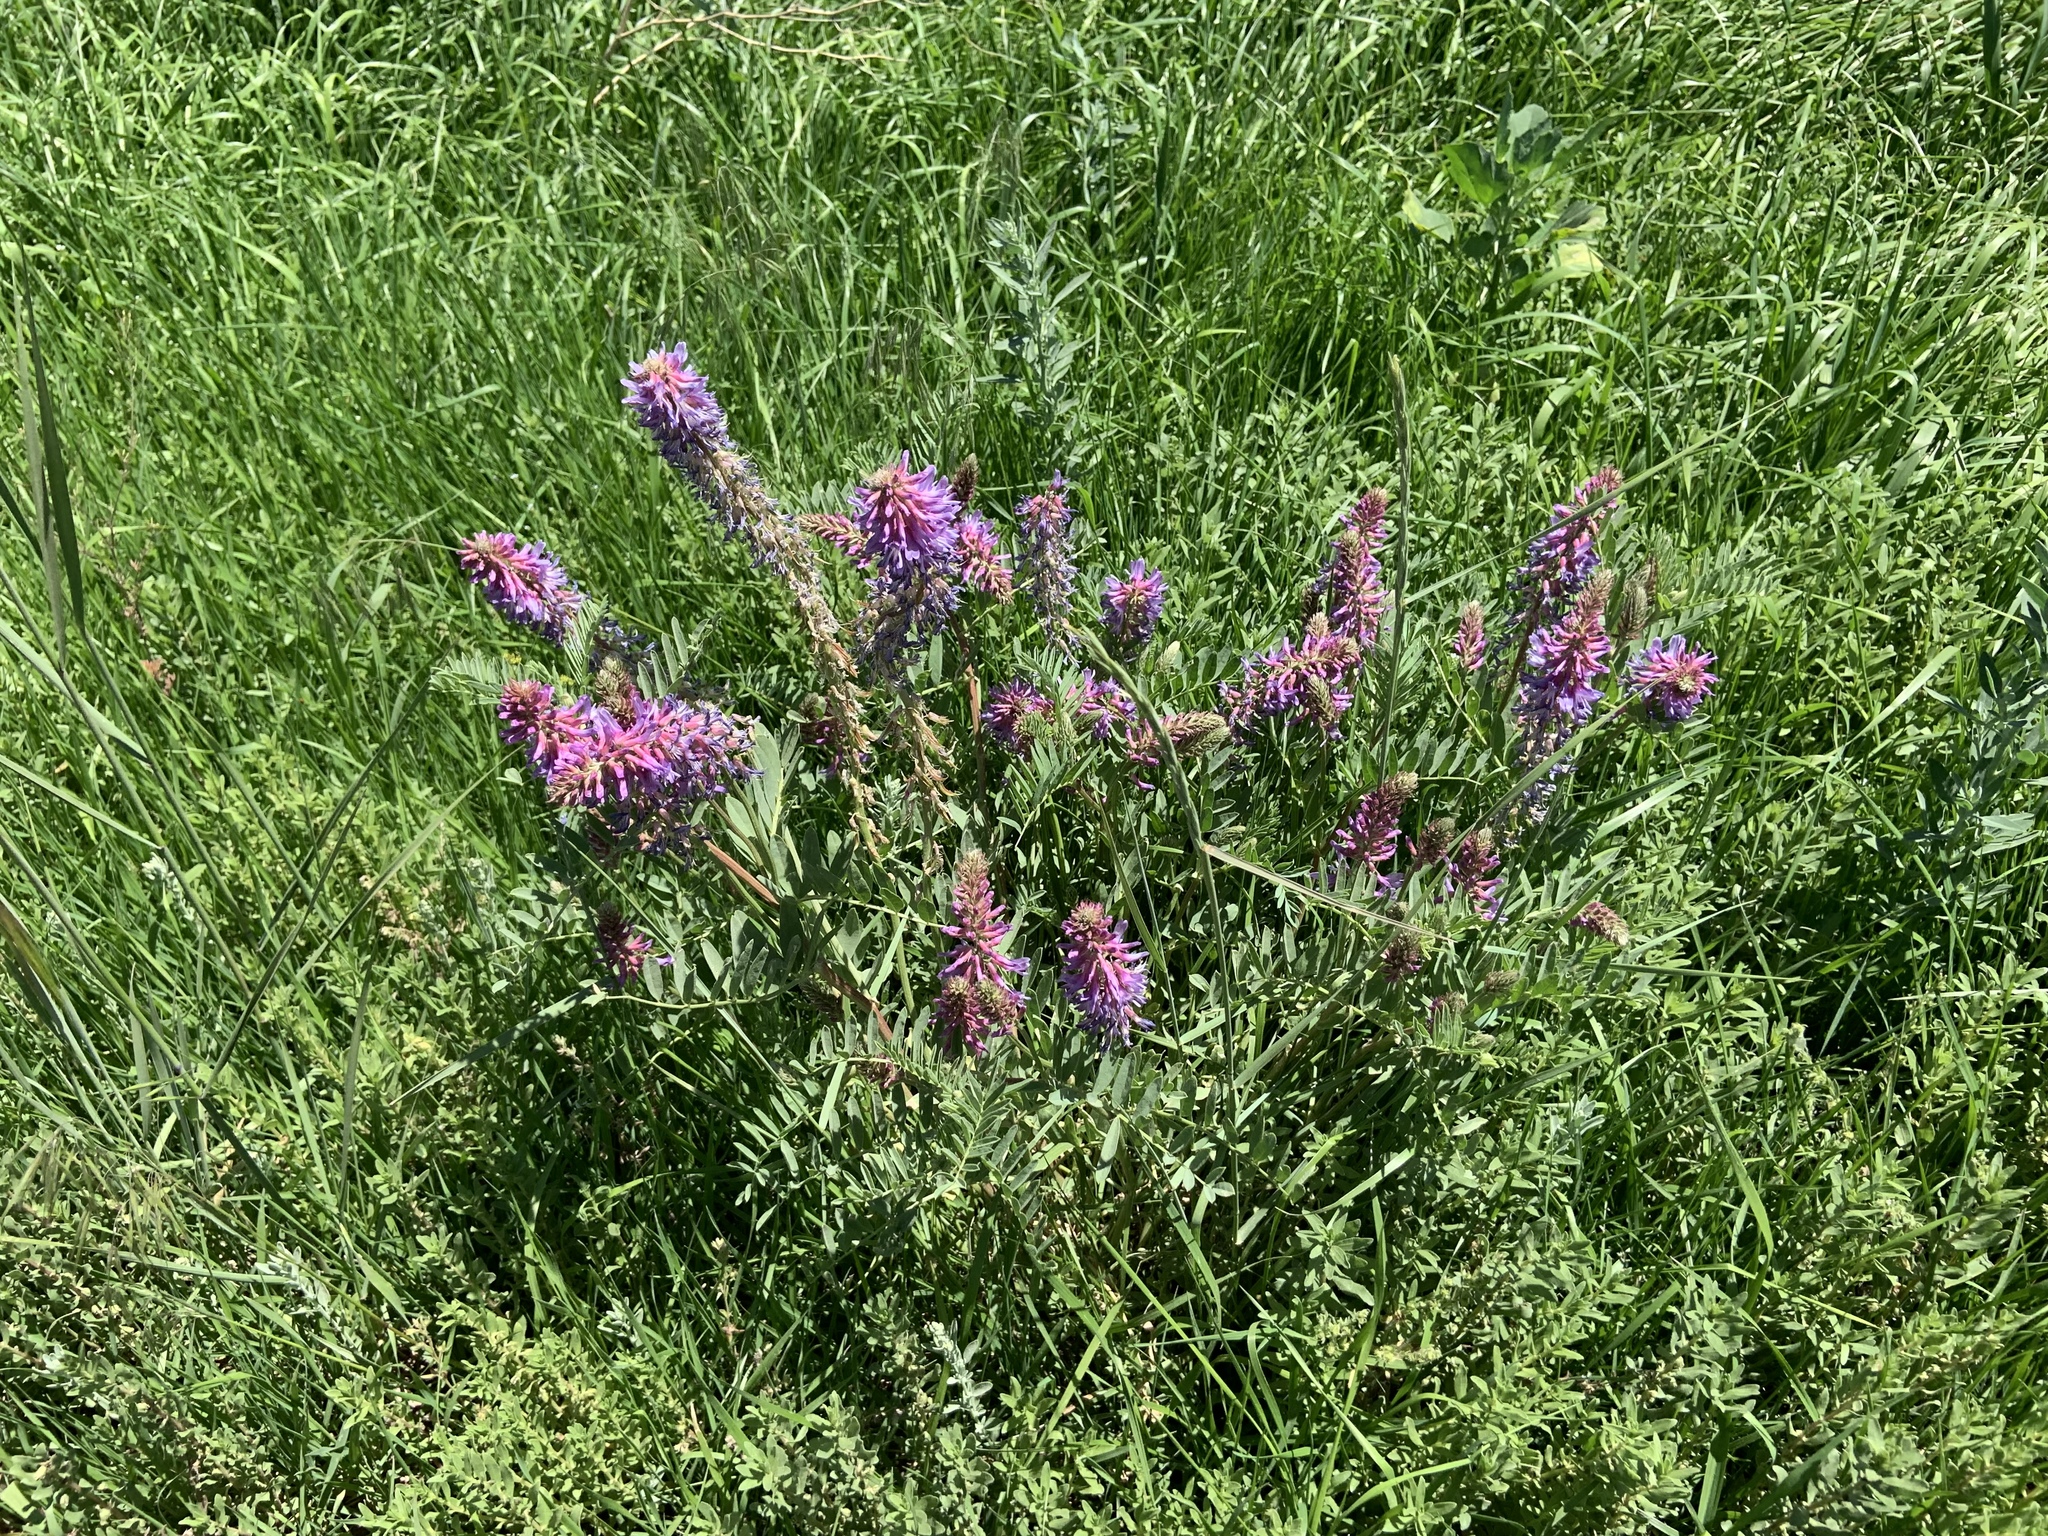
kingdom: Plantae
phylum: Tracheophyta
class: Magnoliopsida
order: Fabales
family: Fabaceae
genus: Astragalus
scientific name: Astragalus bisulcatus
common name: Two-groove milk-vetch
